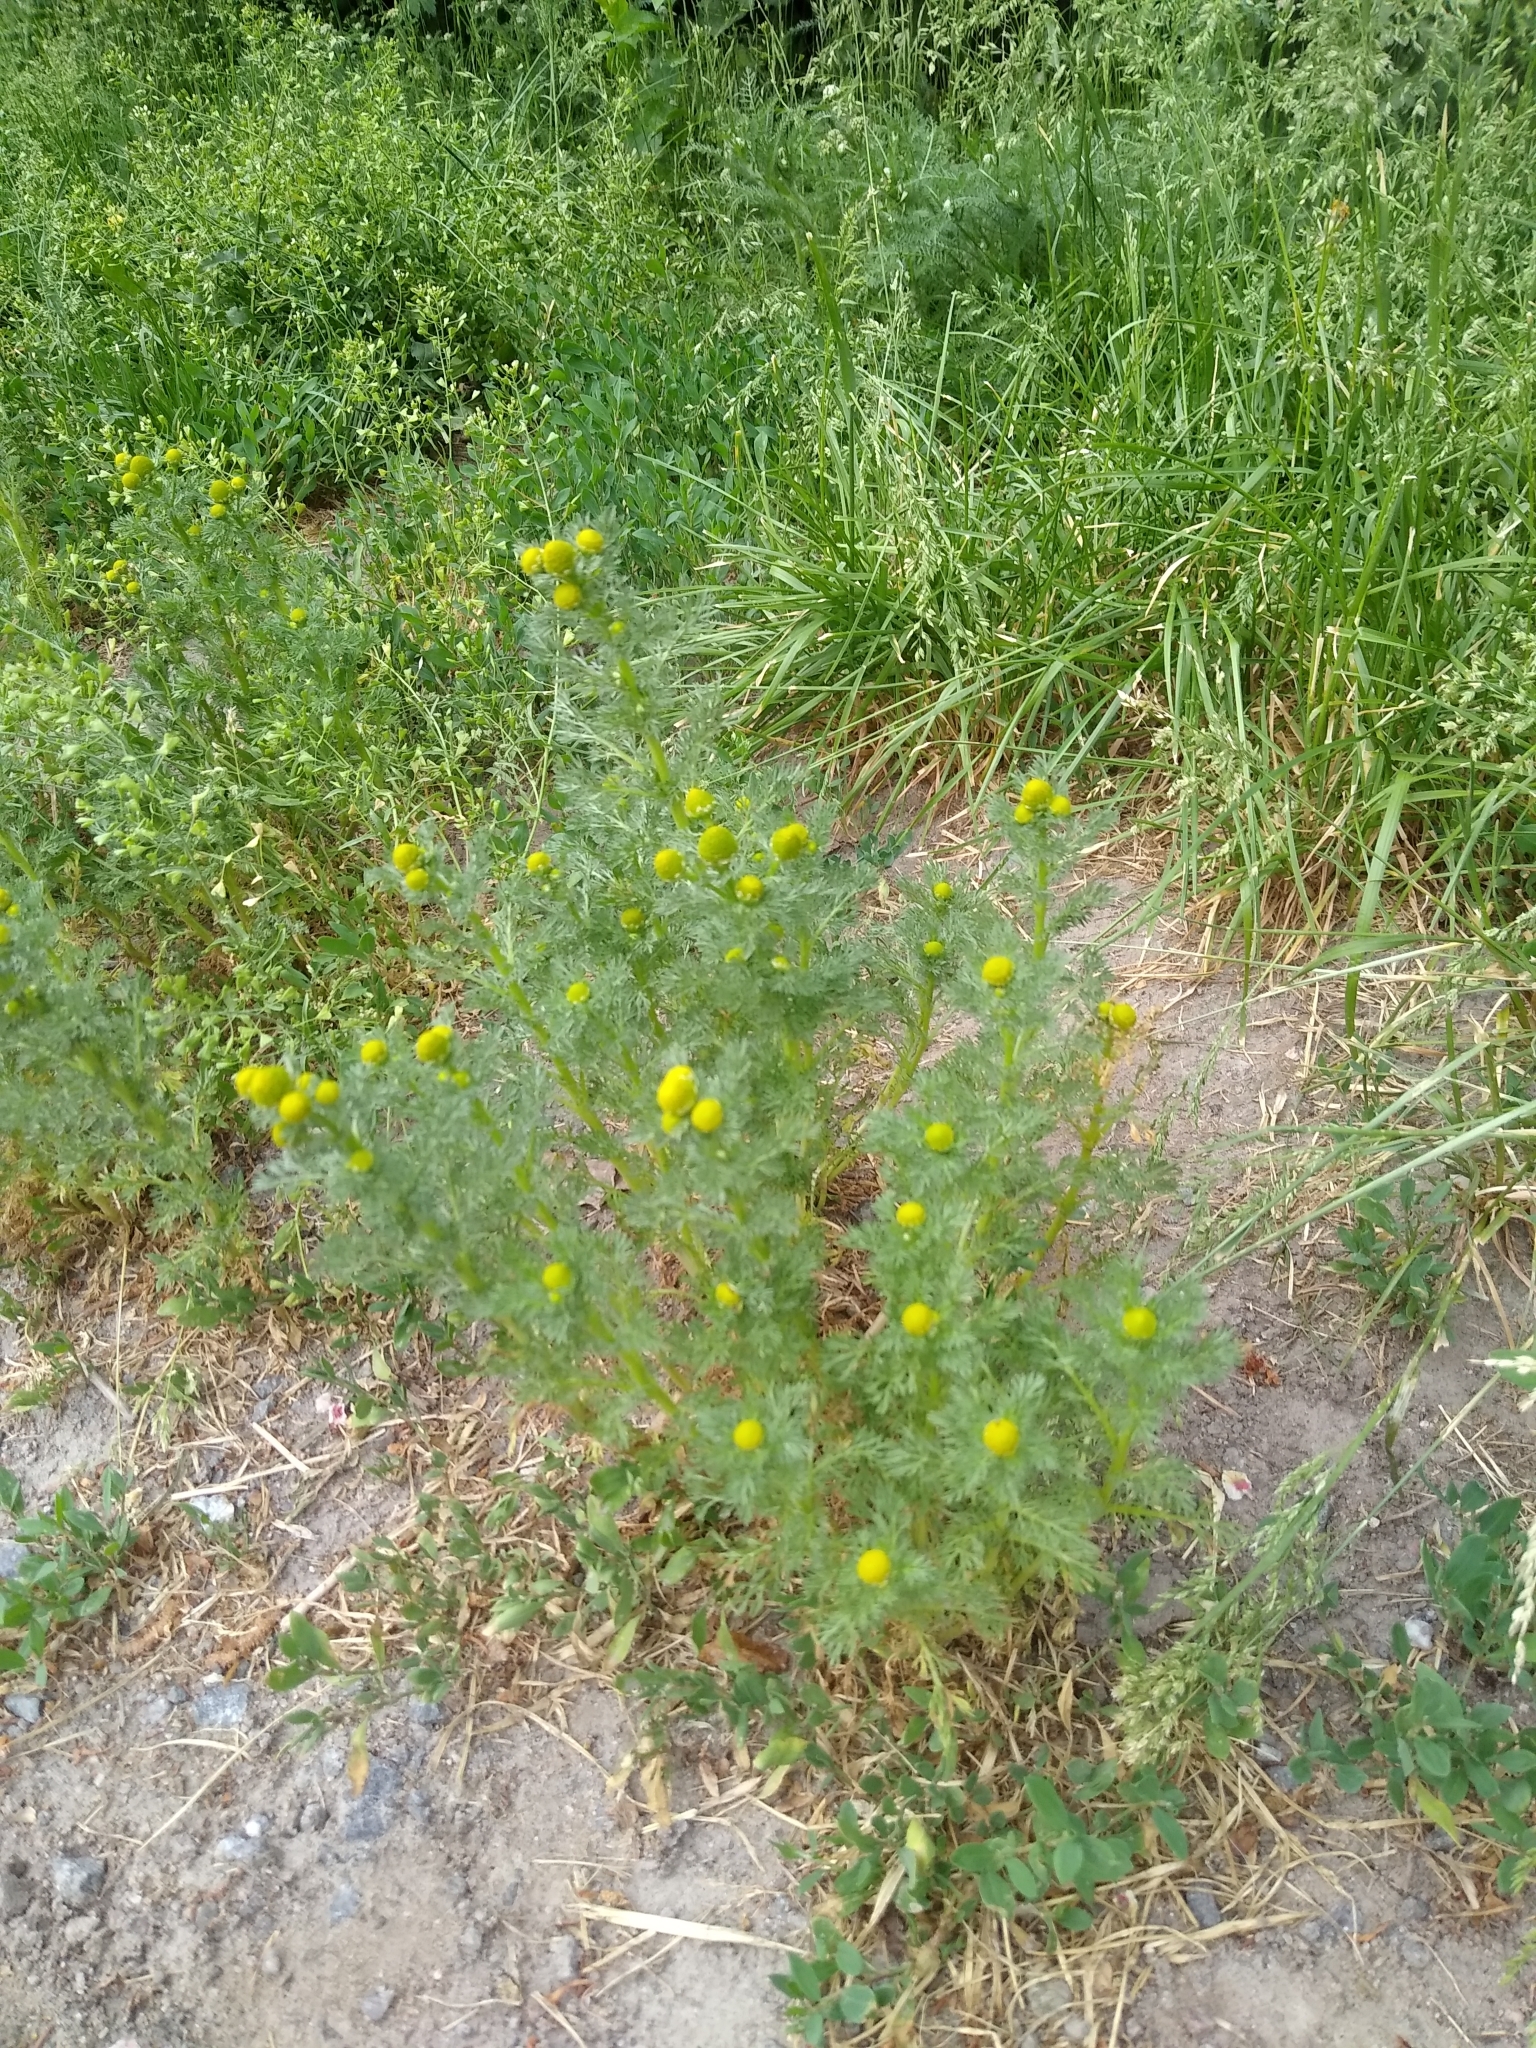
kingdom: Plantae
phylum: Tracheophyta
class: Magnoliopsida
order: Asterales
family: Asteraceae
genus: Matricaria
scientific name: Matricaria discoidea
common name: Disc mayweed
